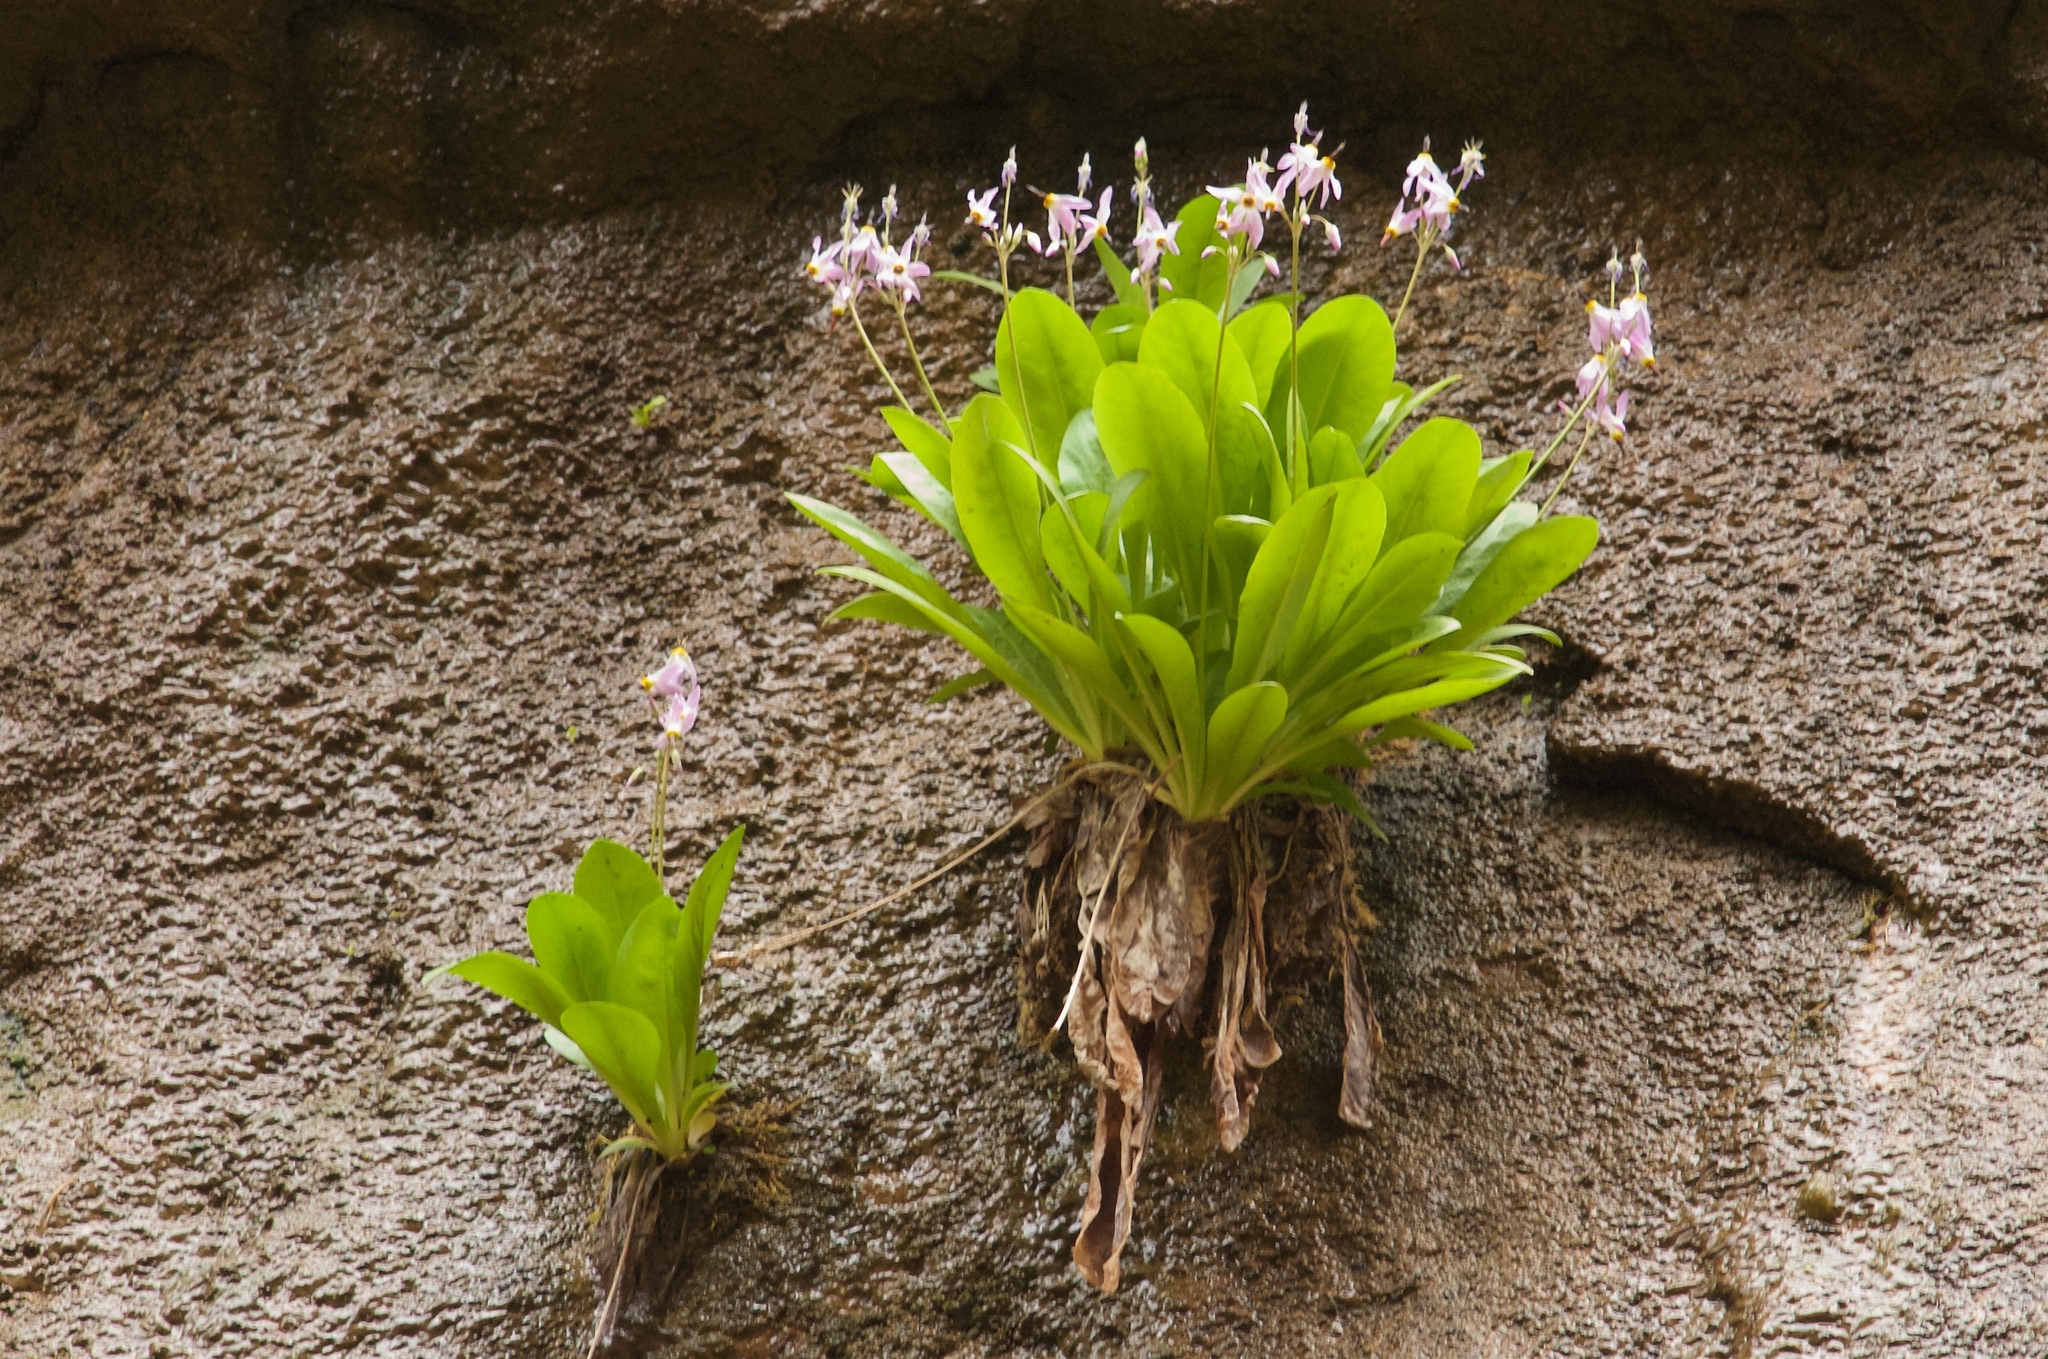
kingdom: Plantae
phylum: Tracheophyta
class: Magnoliopsida
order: Ericales
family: Primulaceae
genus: Dodecatheon
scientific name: Dodecatheon pulchellum
